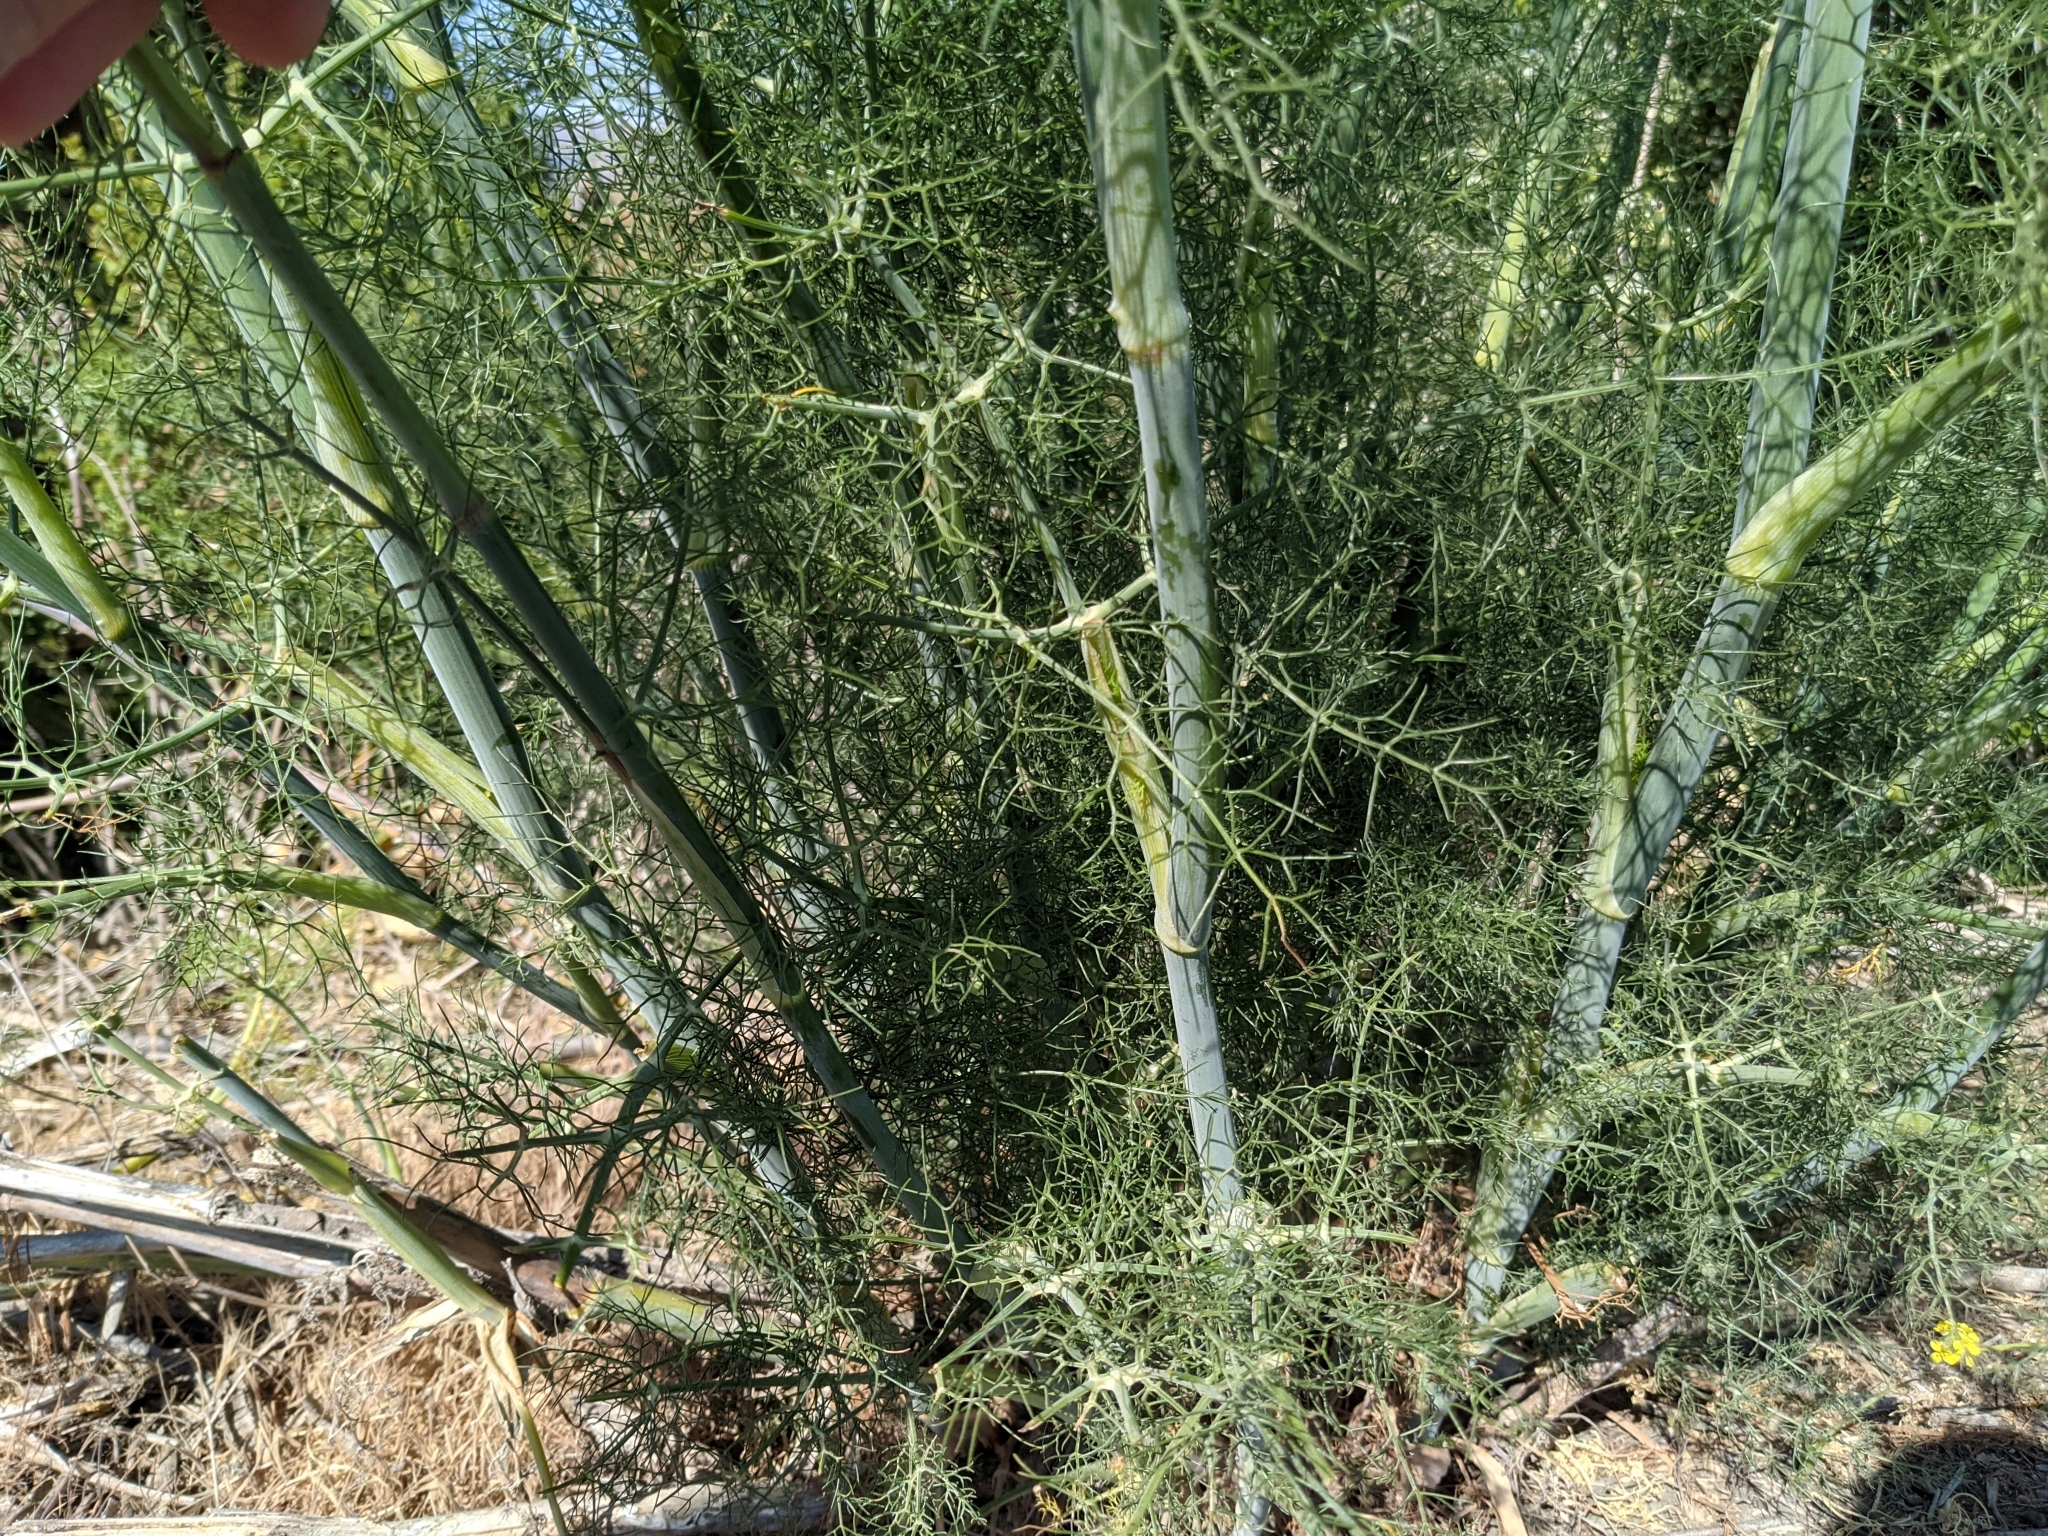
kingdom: Plantae
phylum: Tracheophyta
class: Magnoliopsida
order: Apiales
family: Apiaceae
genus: Foeniculum
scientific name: Foeniculum vulgare
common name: Fennel
